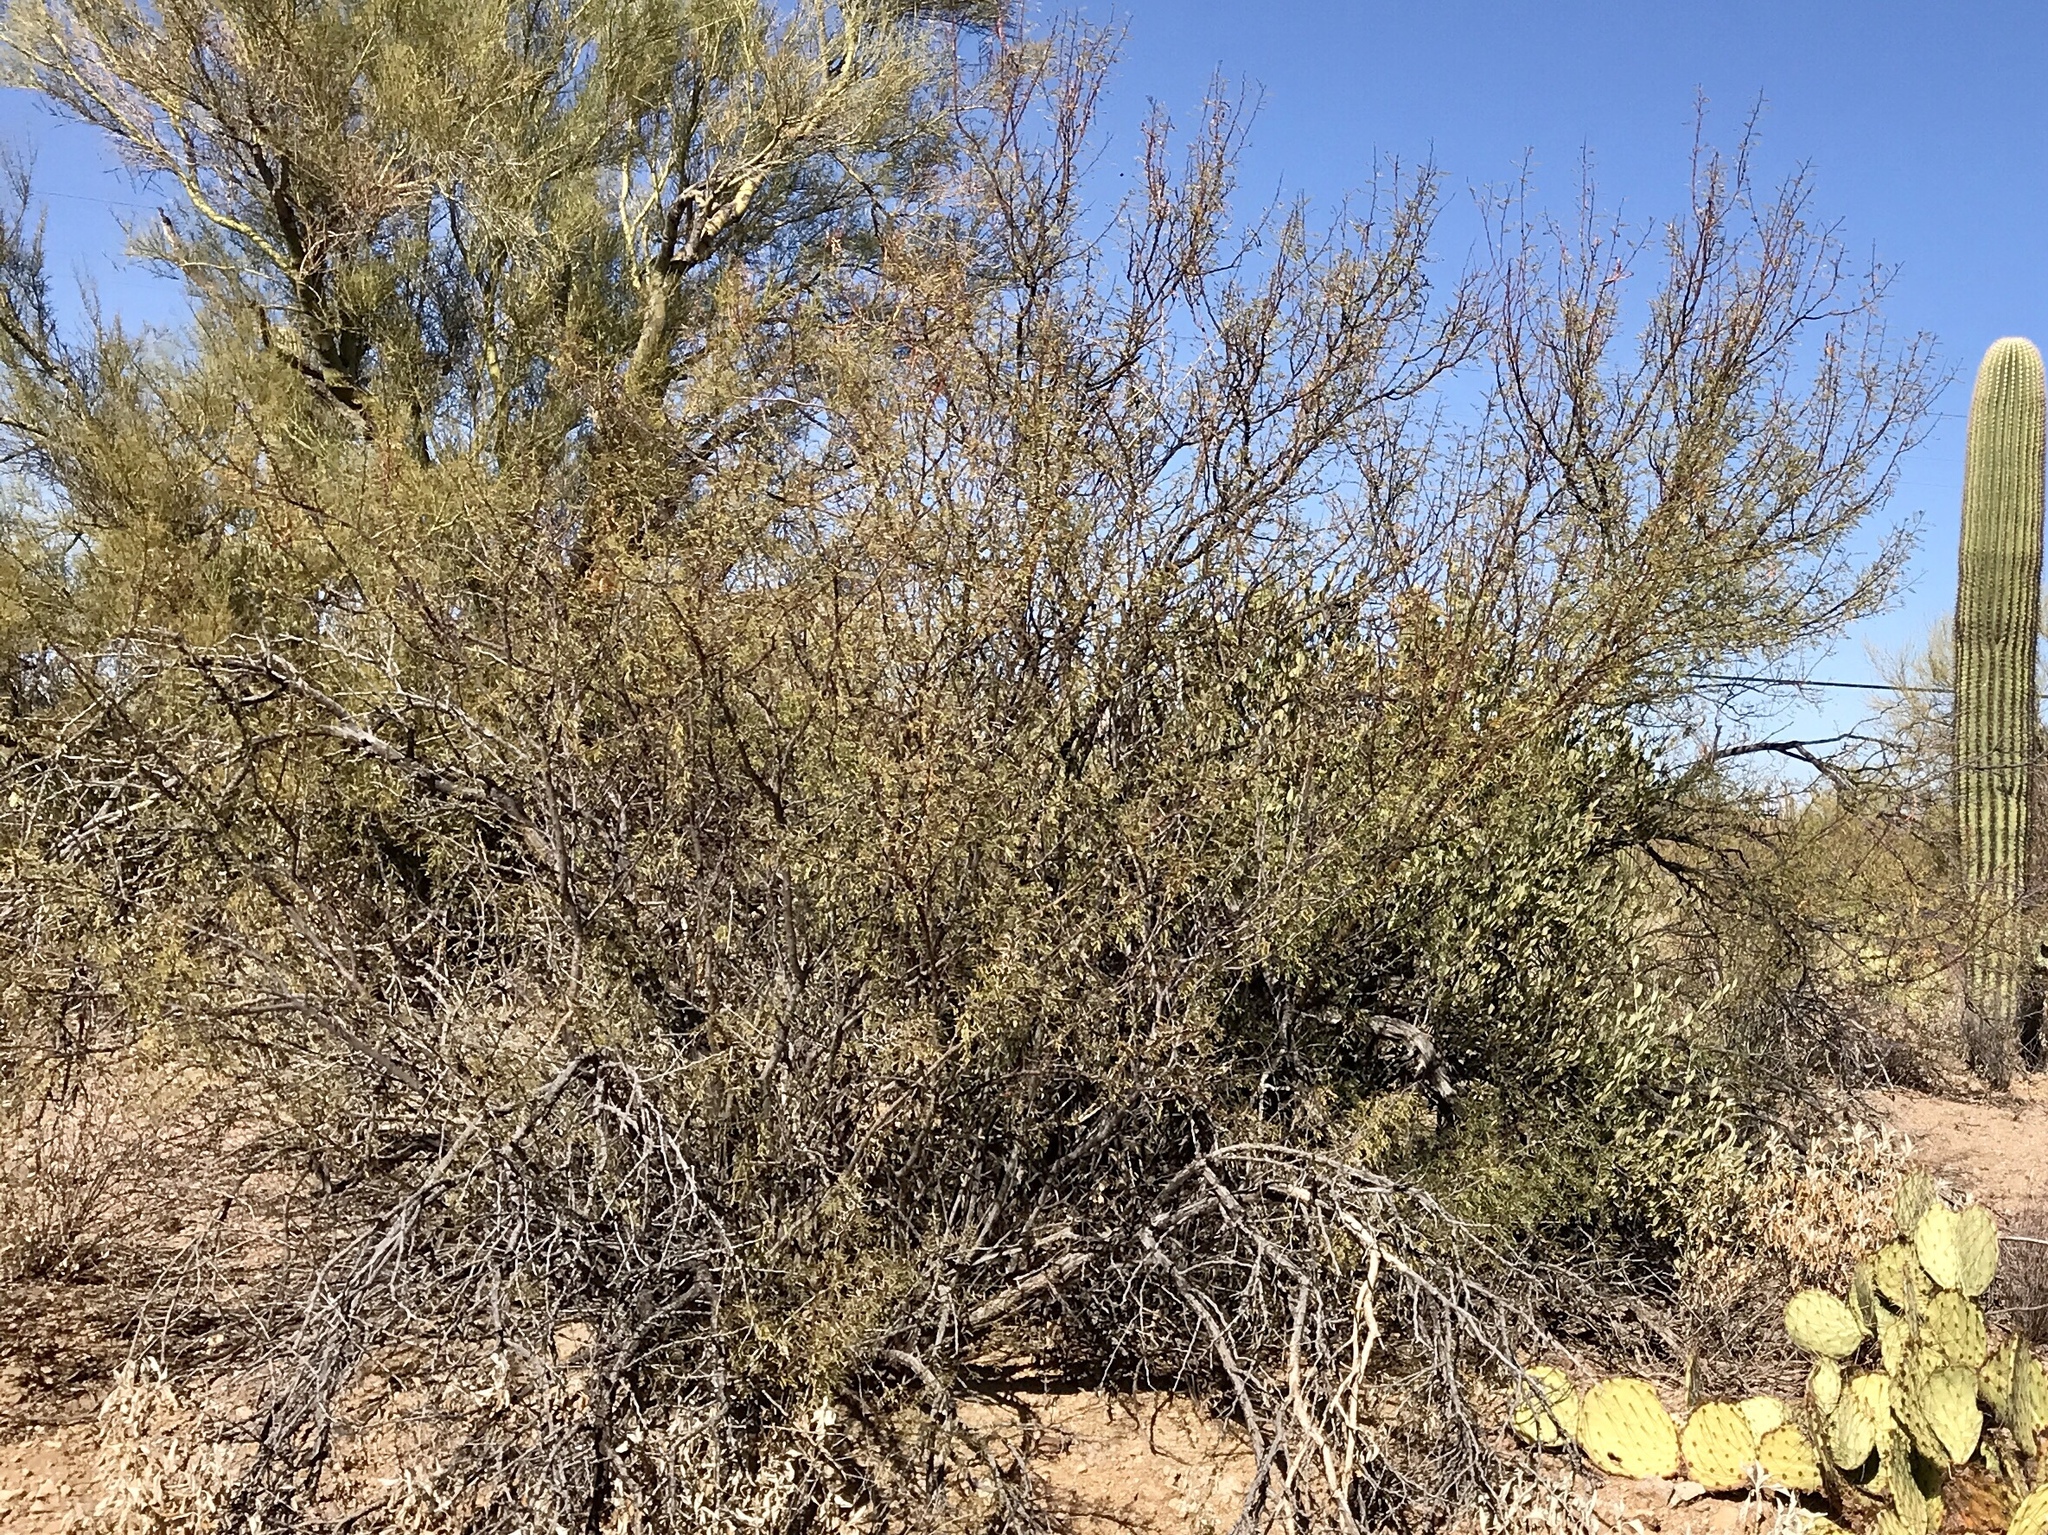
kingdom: Plantae
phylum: Tracheophyta
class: Magnoliopsida
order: Fabales
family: Fabaceae
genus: Vachellia
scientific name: Vachellia constricta
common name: Mescat acacia
